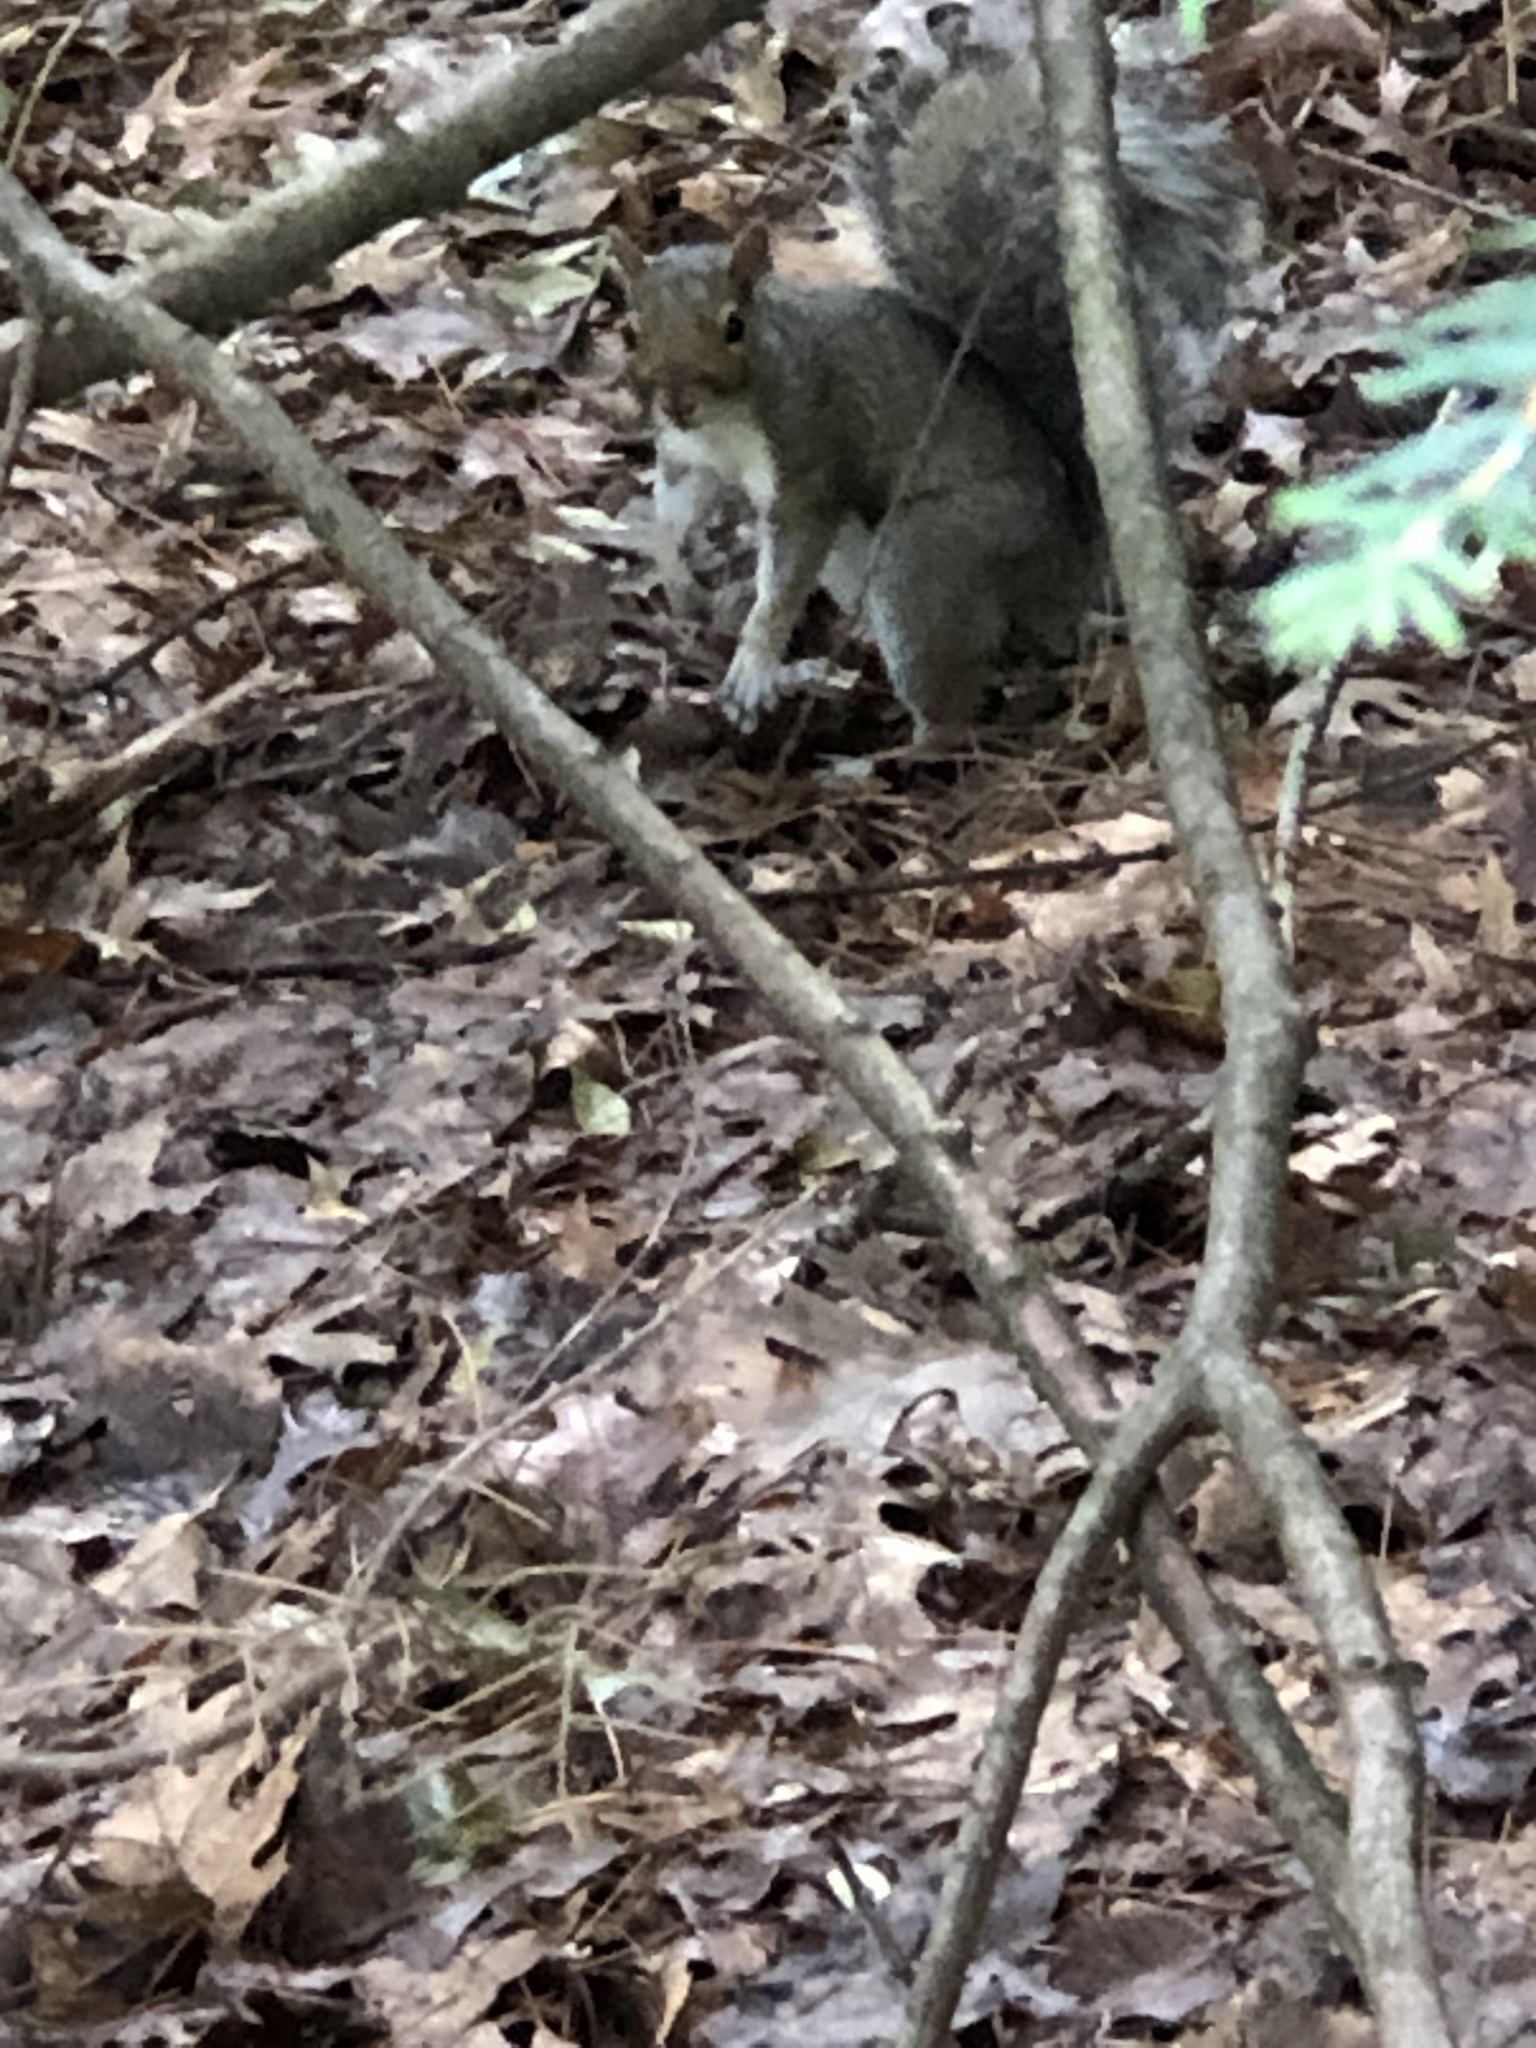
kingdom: Animalia
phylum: Chordata
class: Mammalia
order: Rodentia
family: Sciuridae
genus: Sciurus
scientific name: Sciurus carolinensis
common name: Eastern gray squirrel
